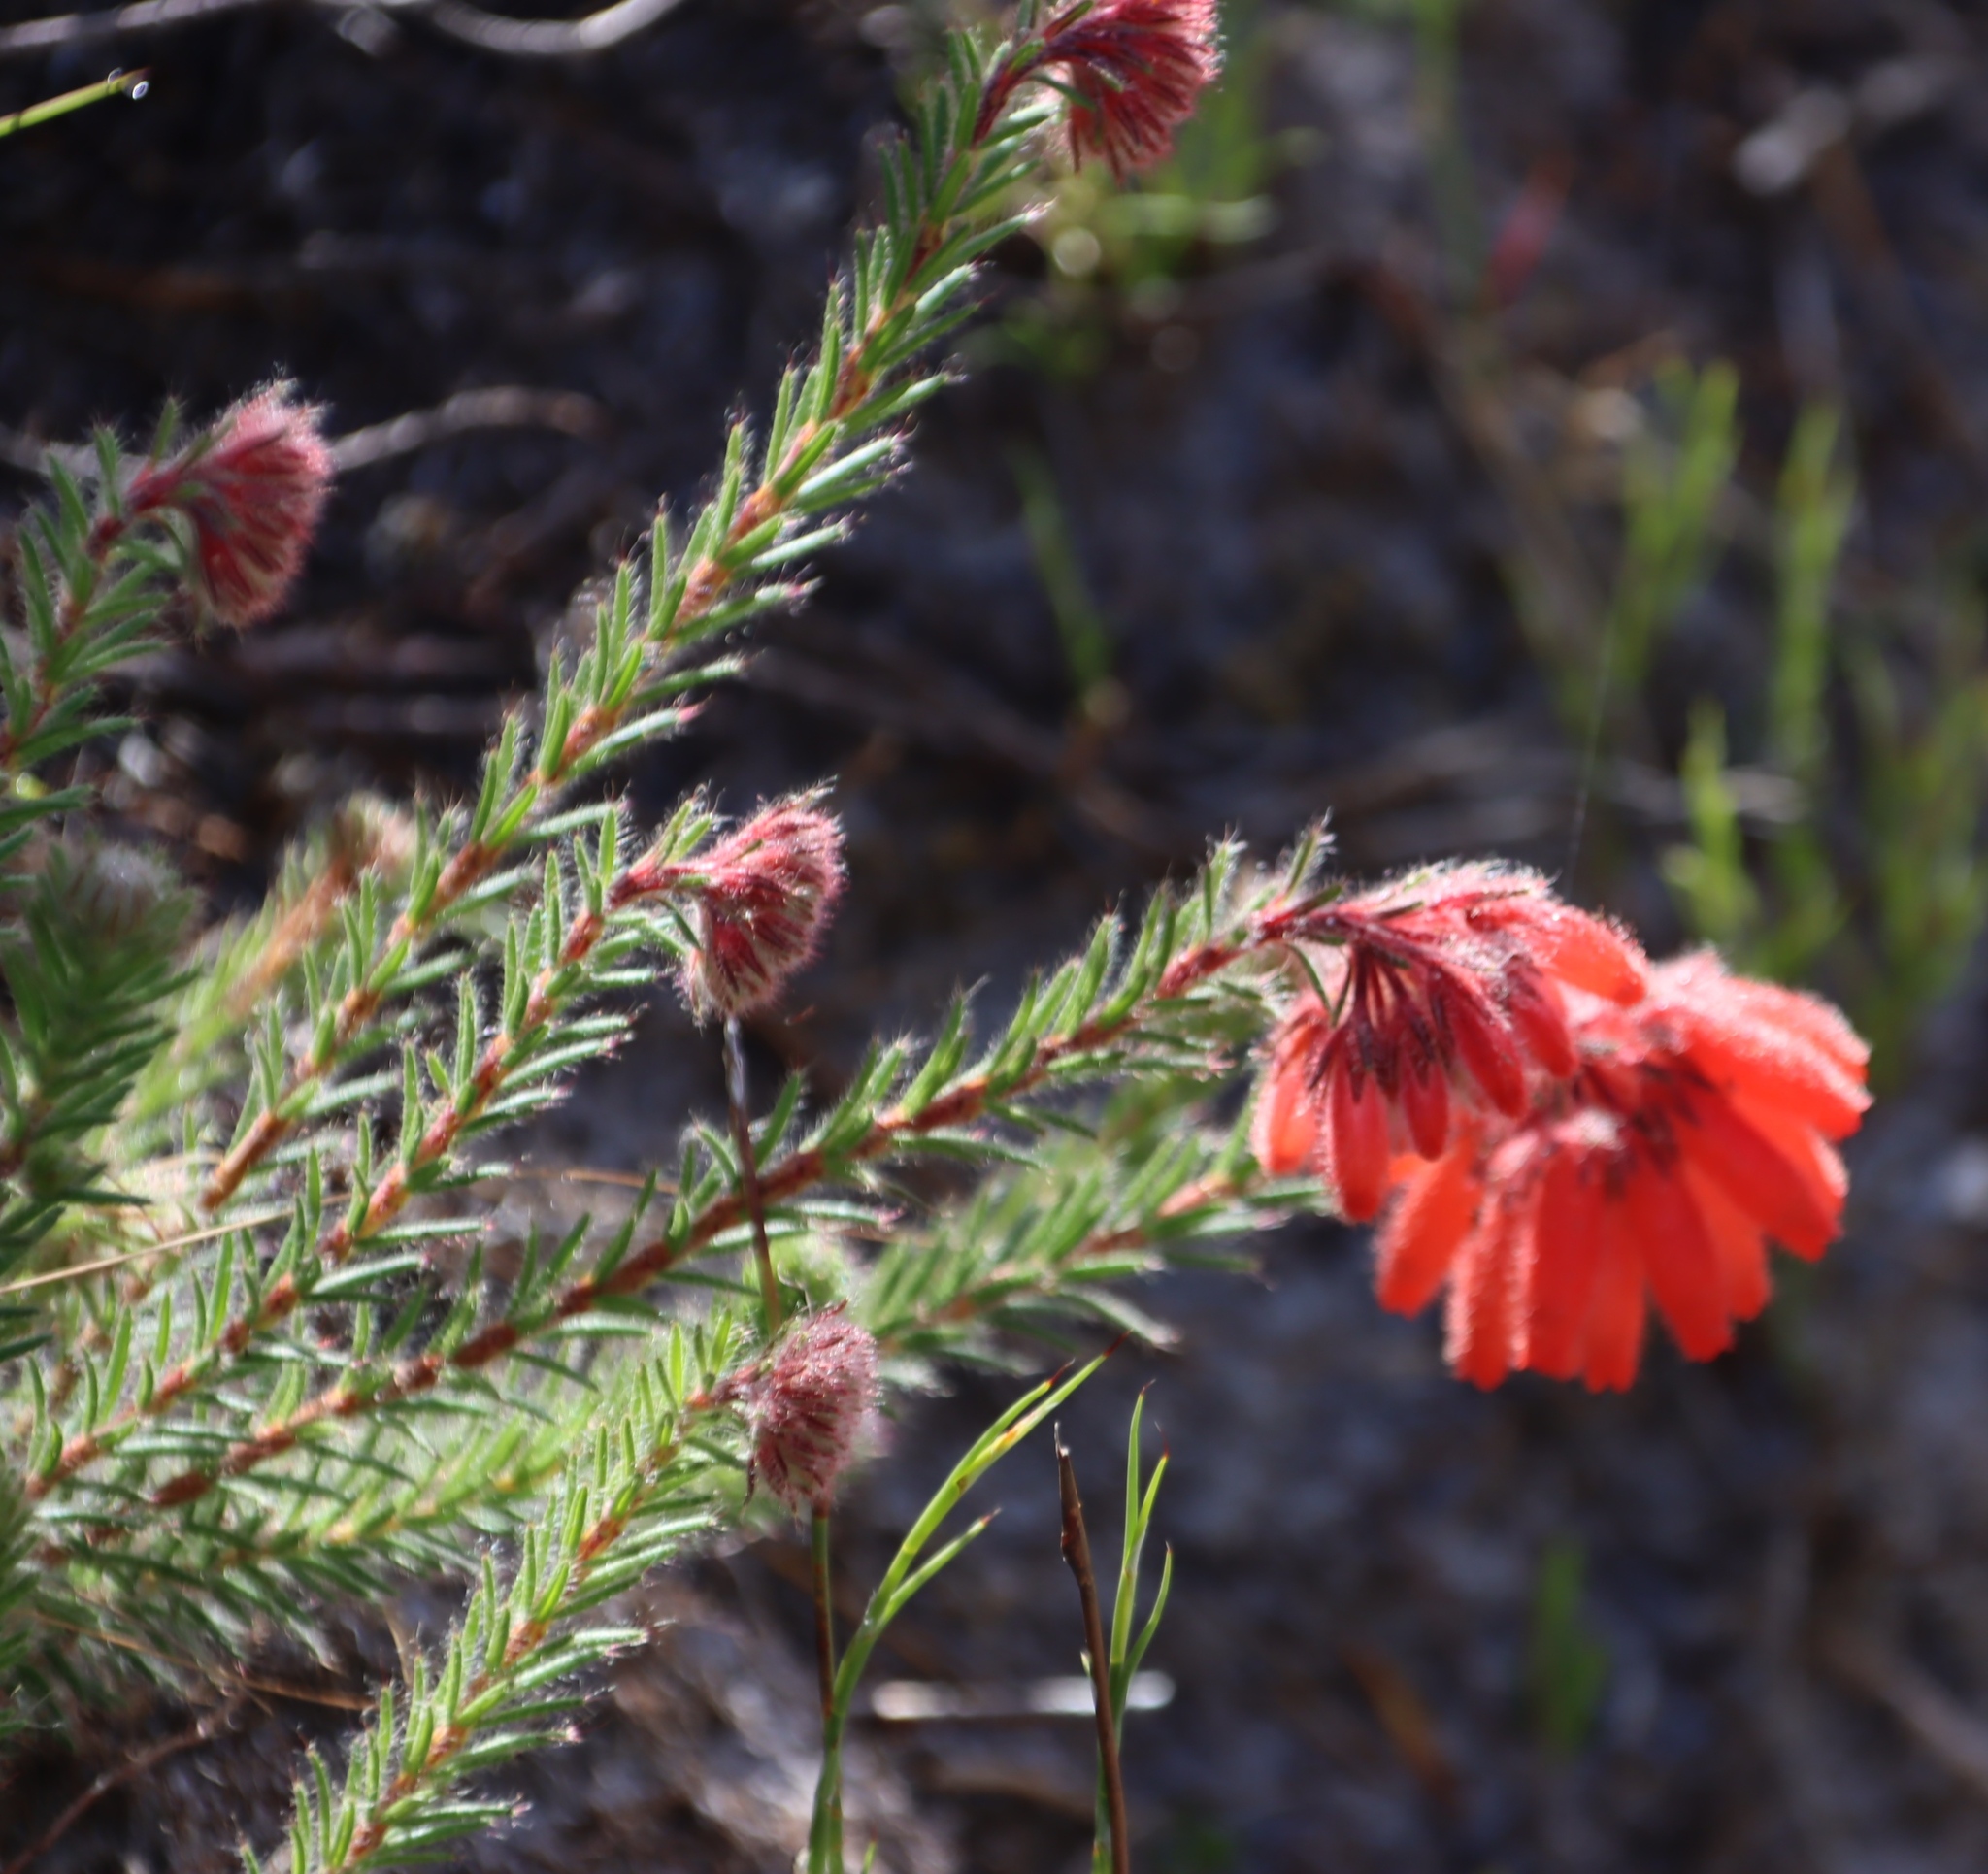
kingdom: Plantae
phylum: Tracheophyta
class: Magnoliopsida
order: Ericales
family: Ericaceae
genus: Erica
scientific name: Erica cerinthoides
